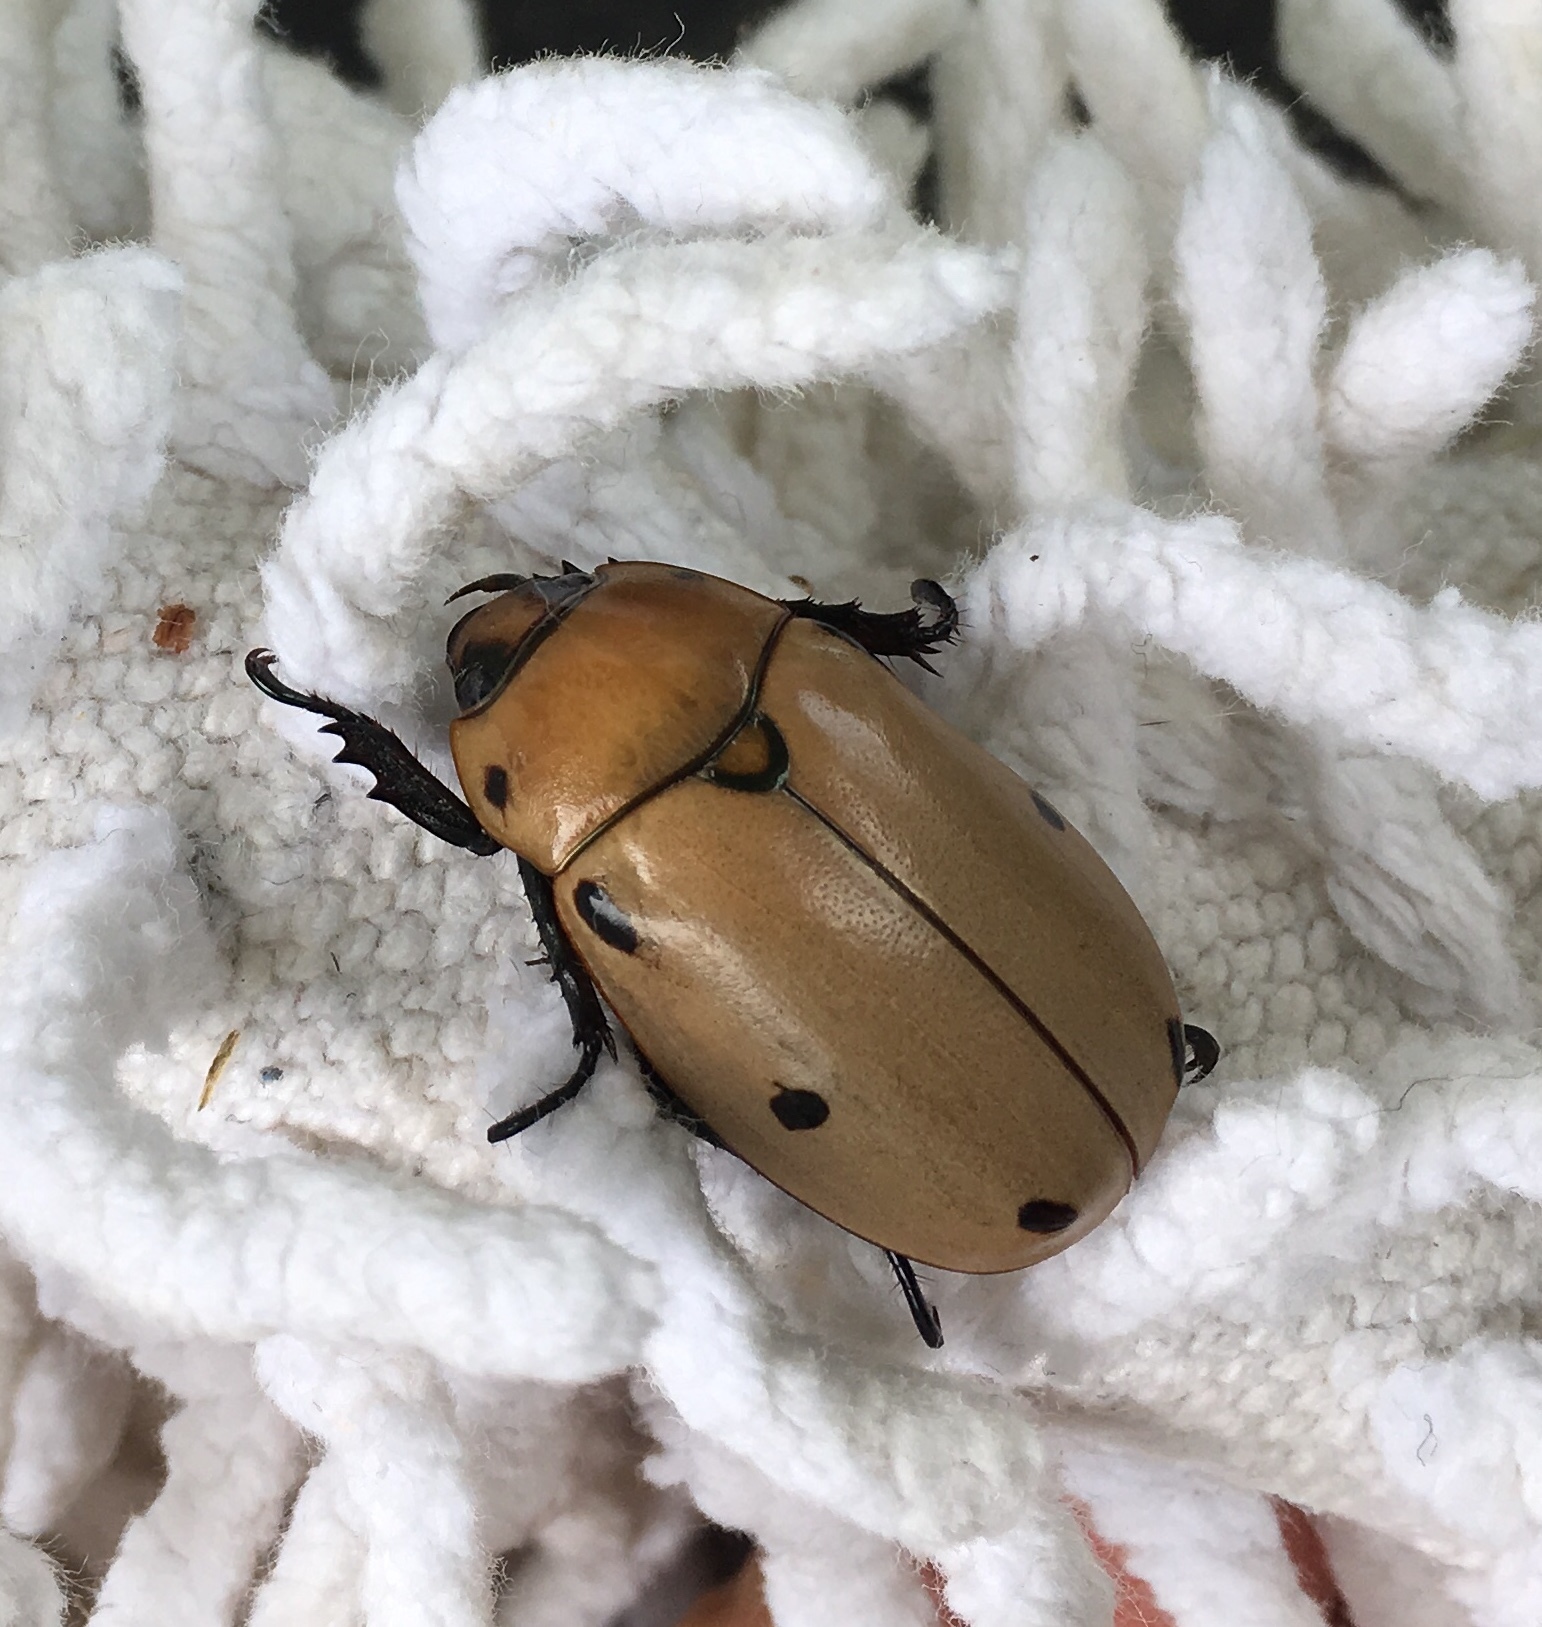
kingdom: Animalia
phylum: Arthropoda
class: Insecta
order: Coleoptera
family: Scarabaeidae
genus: Pelidnota
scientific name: Pelidnota punctata
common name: Grapevine beetle
